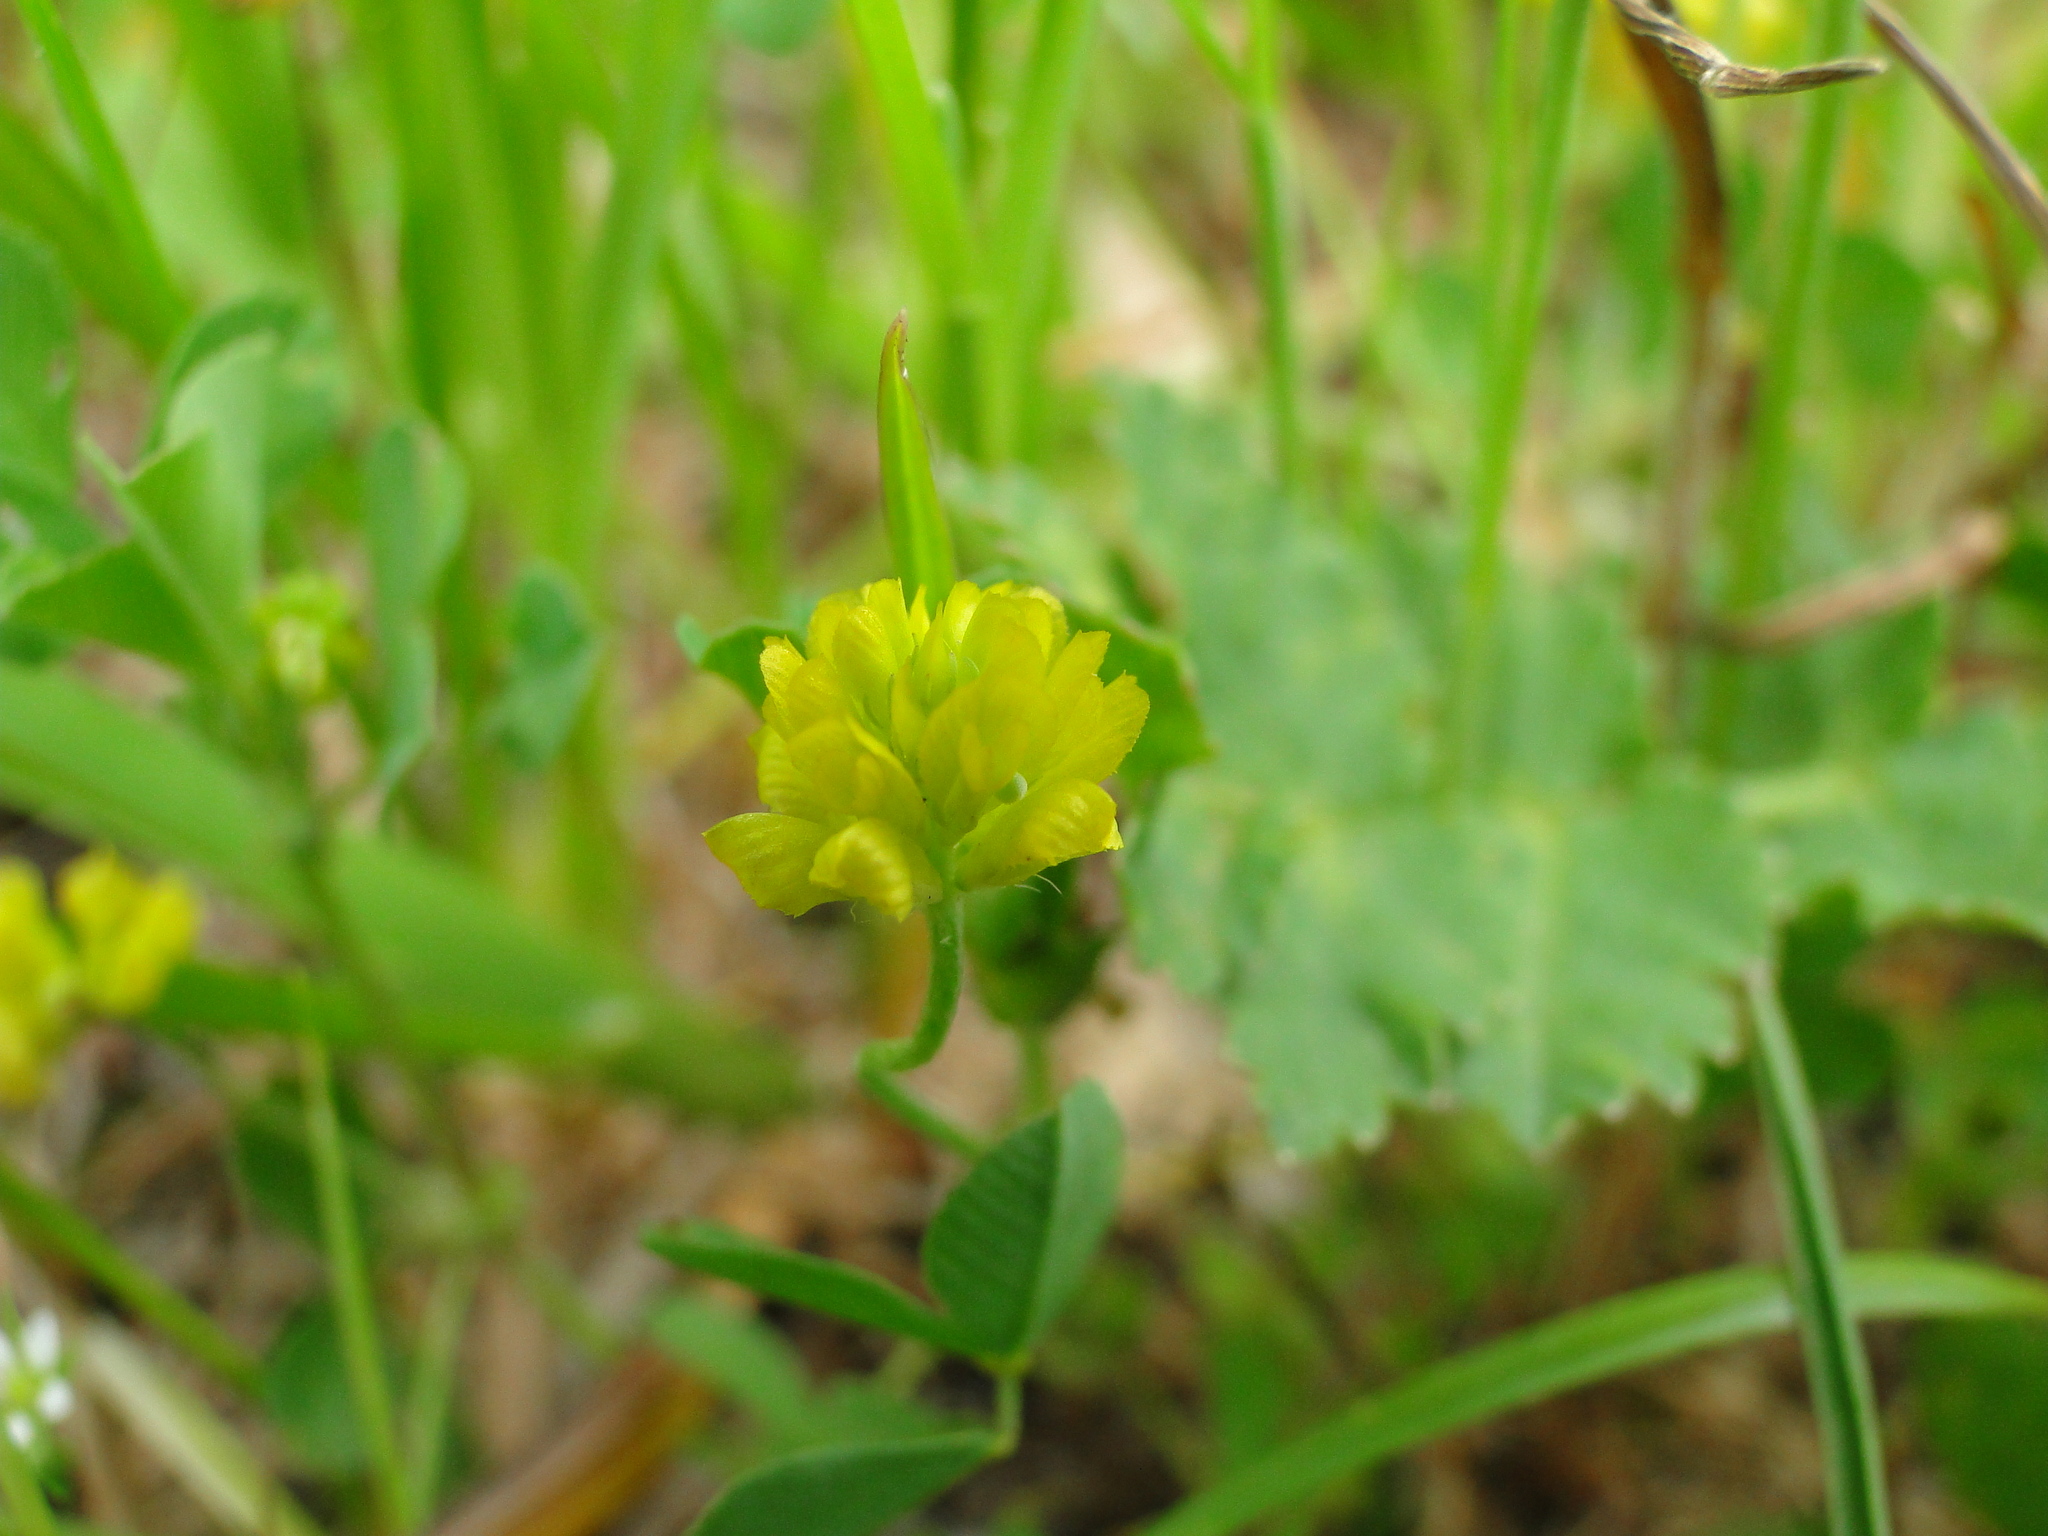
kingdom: Animalia
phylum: Arthropoda
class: Insecta
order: Lepidoptera
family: Lycaenidae
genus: Polyommatus
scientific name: Polyommatus icarus
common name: Common blue
